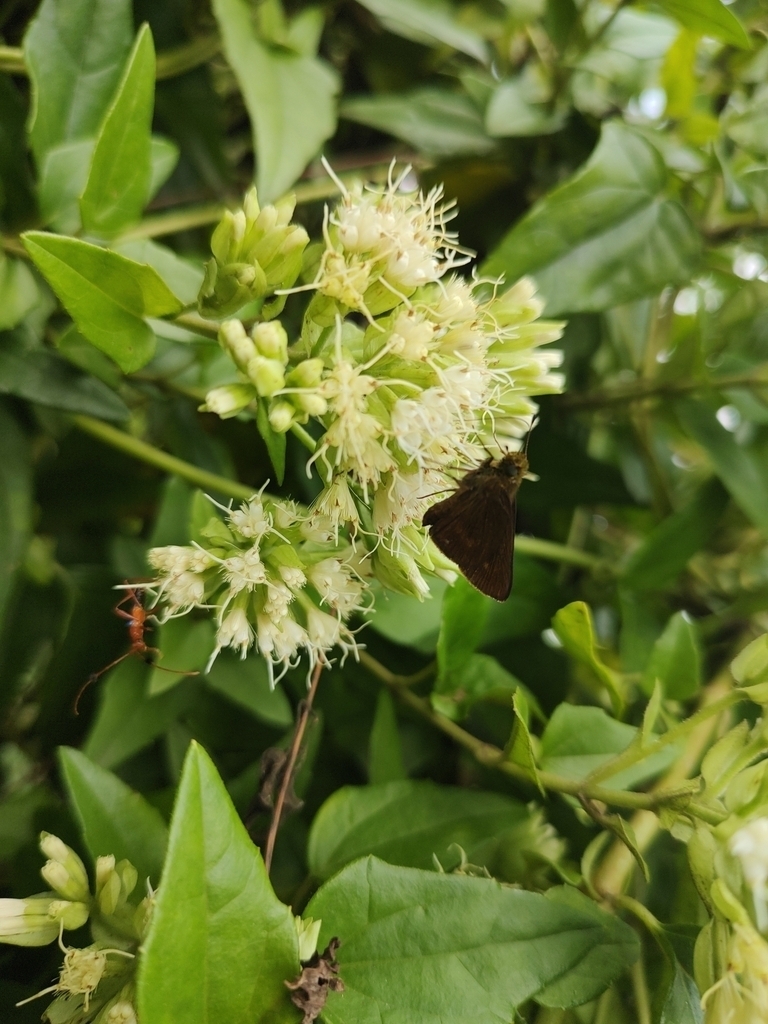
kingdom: Plantae
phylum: Tracheophyta
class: Magnoliopsida
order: Asterales
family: Asteraceae
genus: Mikania
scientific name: Mikania involucrata
